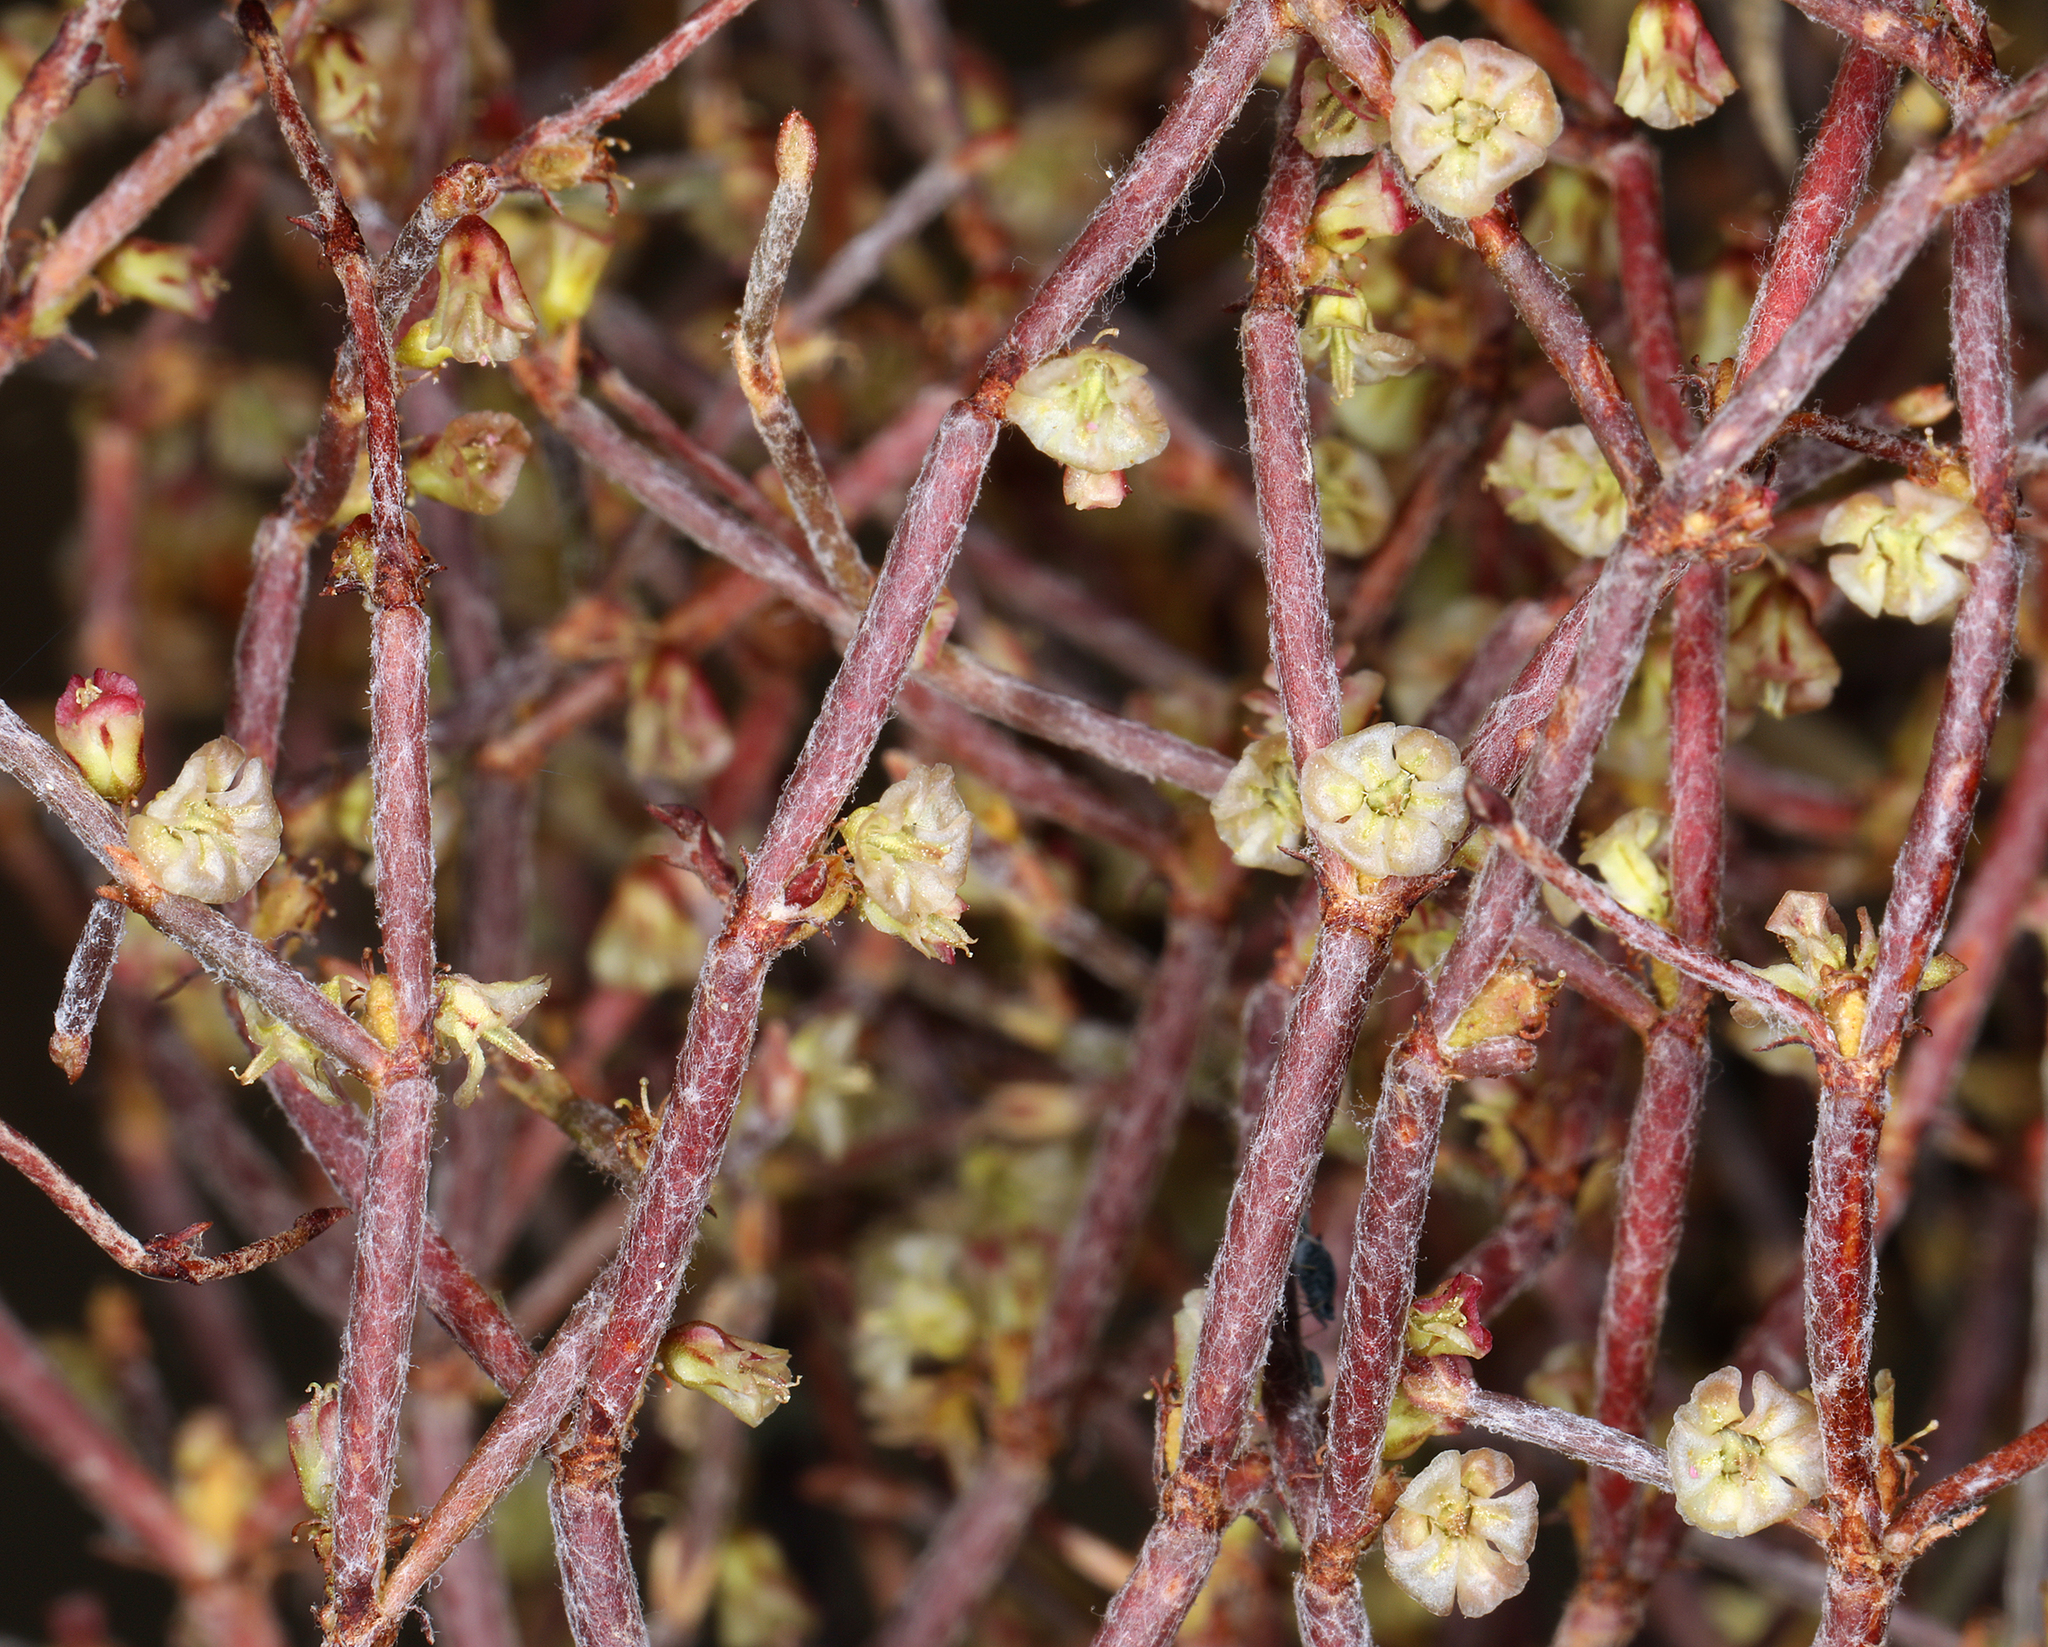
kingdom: Plantae
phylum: Tracheophyta
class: Magnoliopsida
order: Caryophyllales
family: Polygonaceae
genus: Eriogonum
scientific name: Eriogonum nidularium
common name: Bird's-nest wild buckwheat
